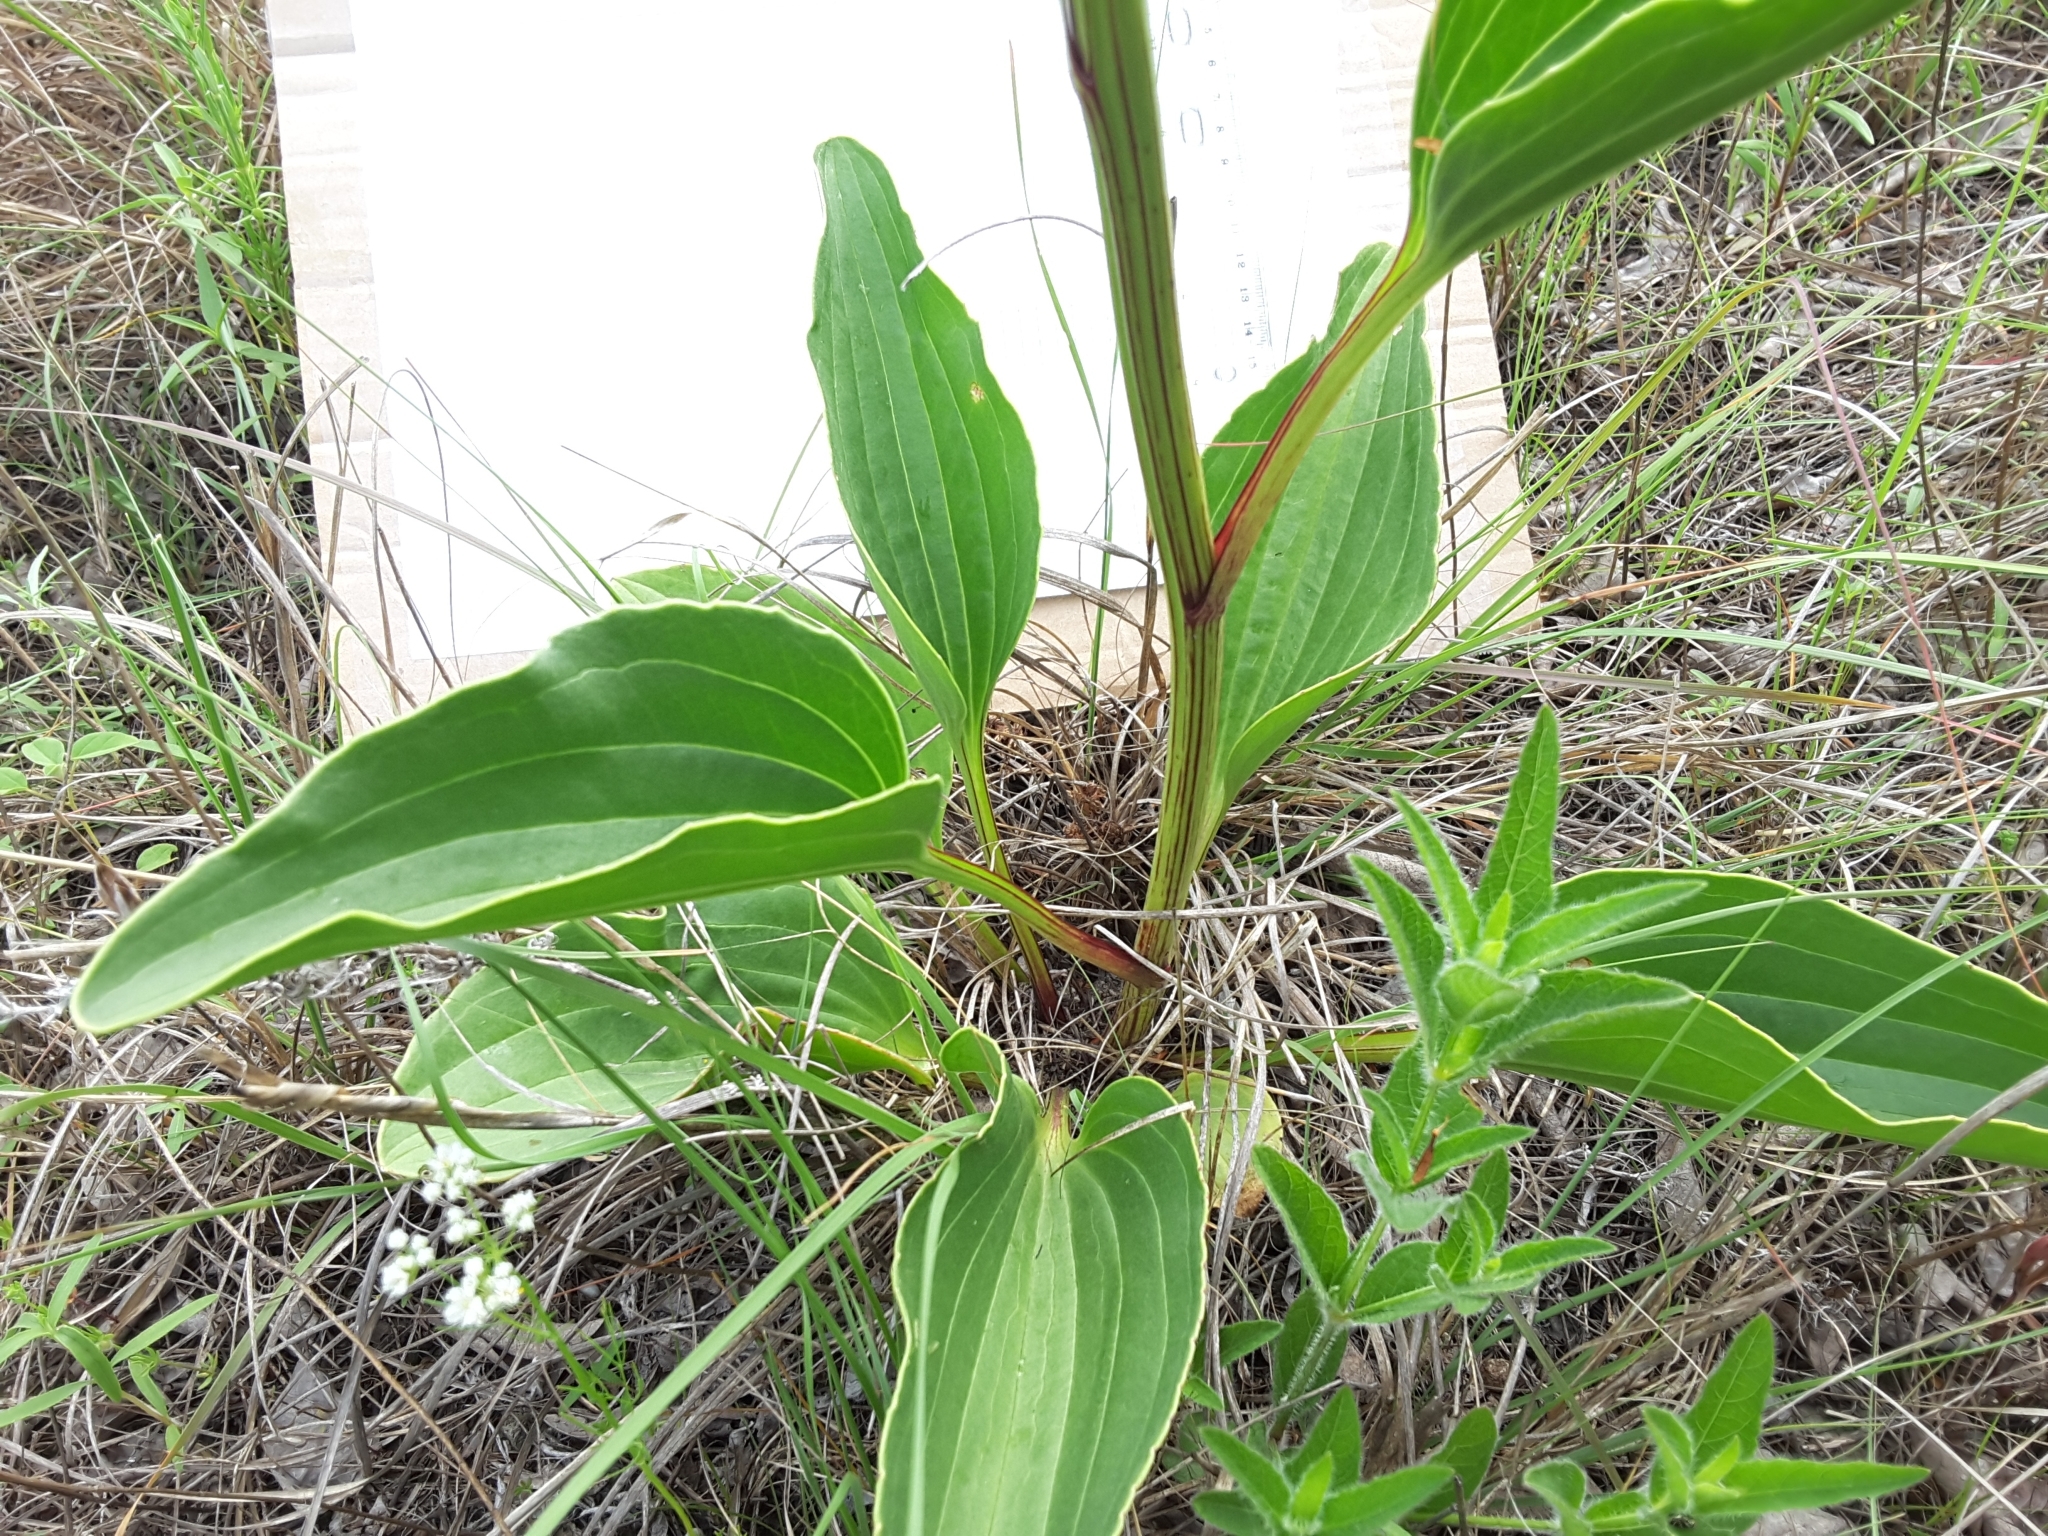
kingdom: Plantae
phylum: Tracheophyta
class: Magnoliopsida
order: Asterales
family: Asteraceae
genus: Arnoglossum
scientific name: Arnoglossum plantagineum
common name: Groove-stemmed indian-plantain
